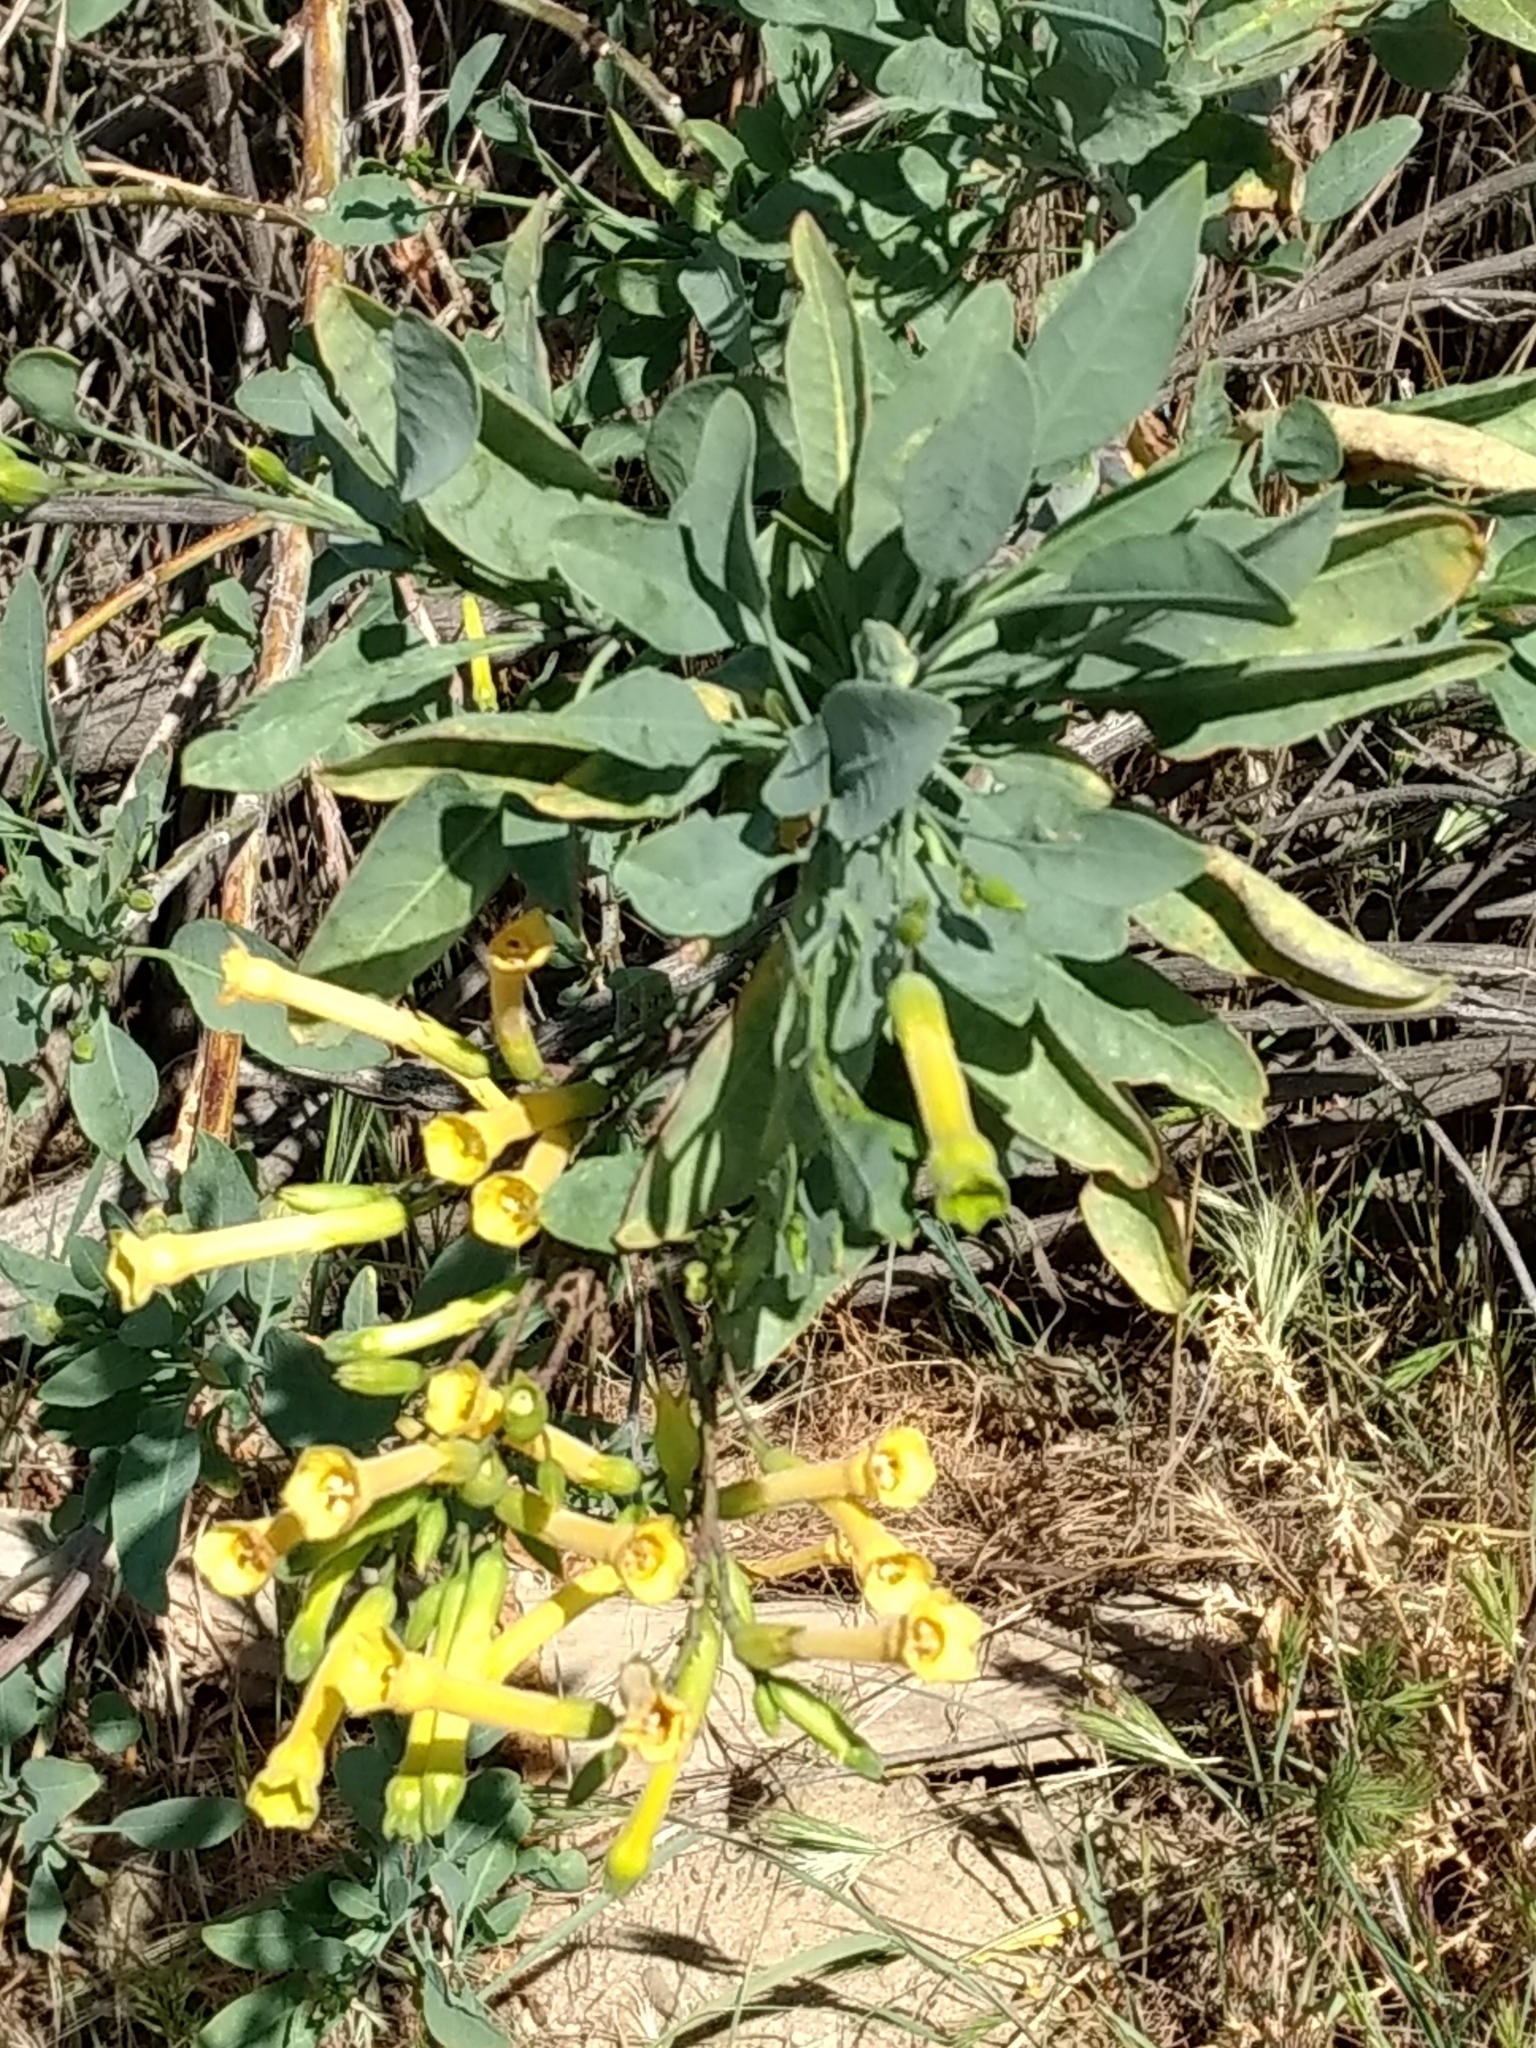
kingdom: Plantae
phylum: Tracheophyta
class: Magnoliopsida
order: Solanales
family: Solanaceae
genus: Nicotiana
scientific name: Nicotiana glauca
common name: Tree tobacco
